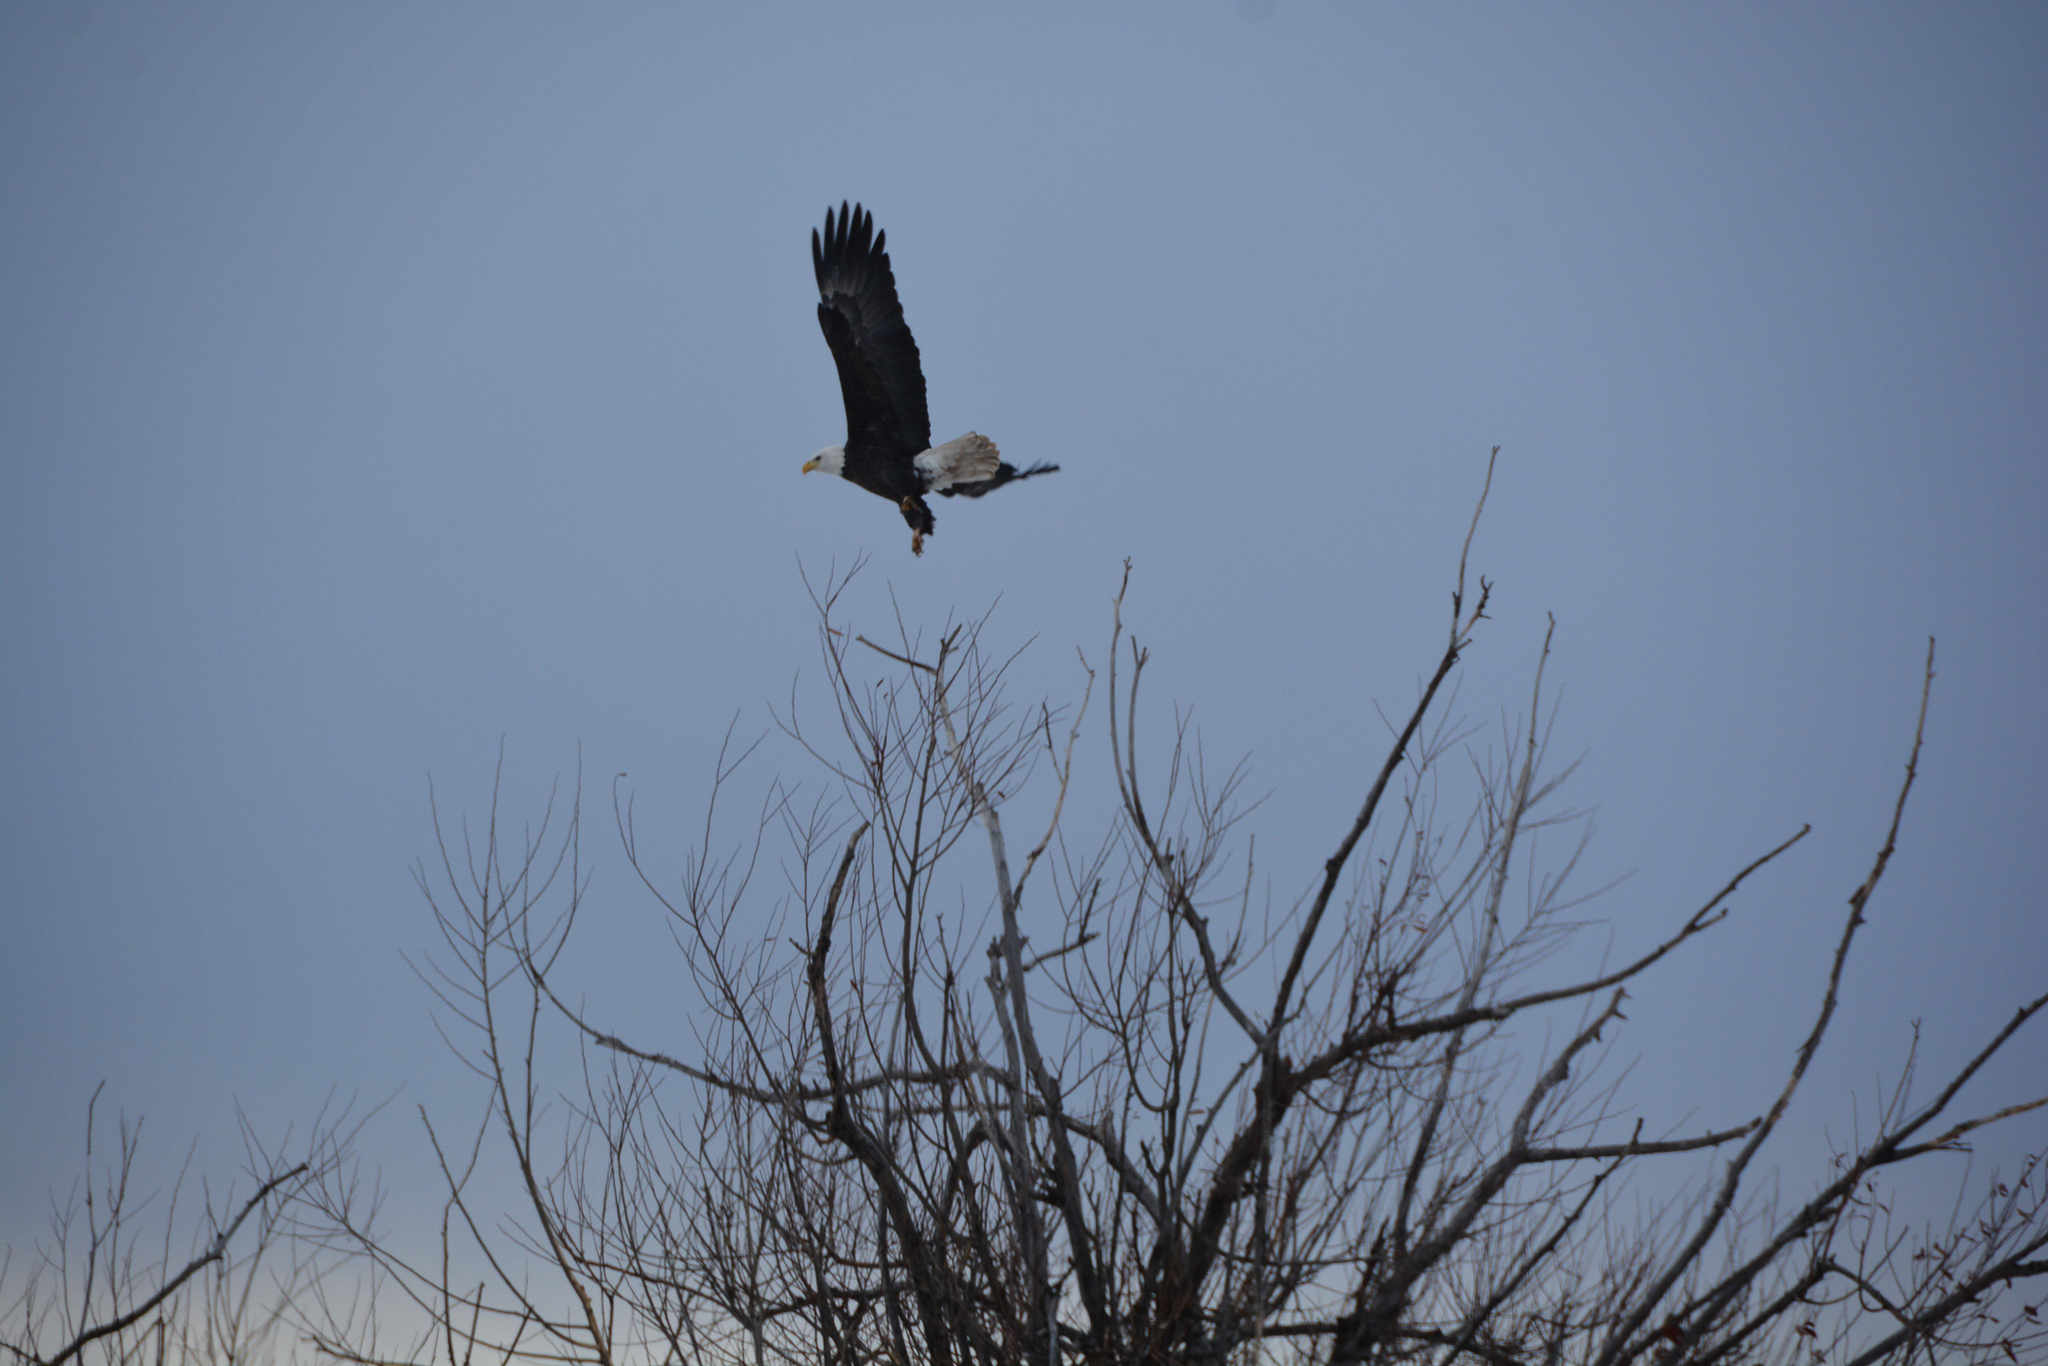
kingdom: Animalia
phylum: Chordata
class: Aves
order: Accipitriformes
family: Accipitridae
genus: Haliaeetus
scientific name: Haliaeetus leucocephalus
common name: Bald eagle
